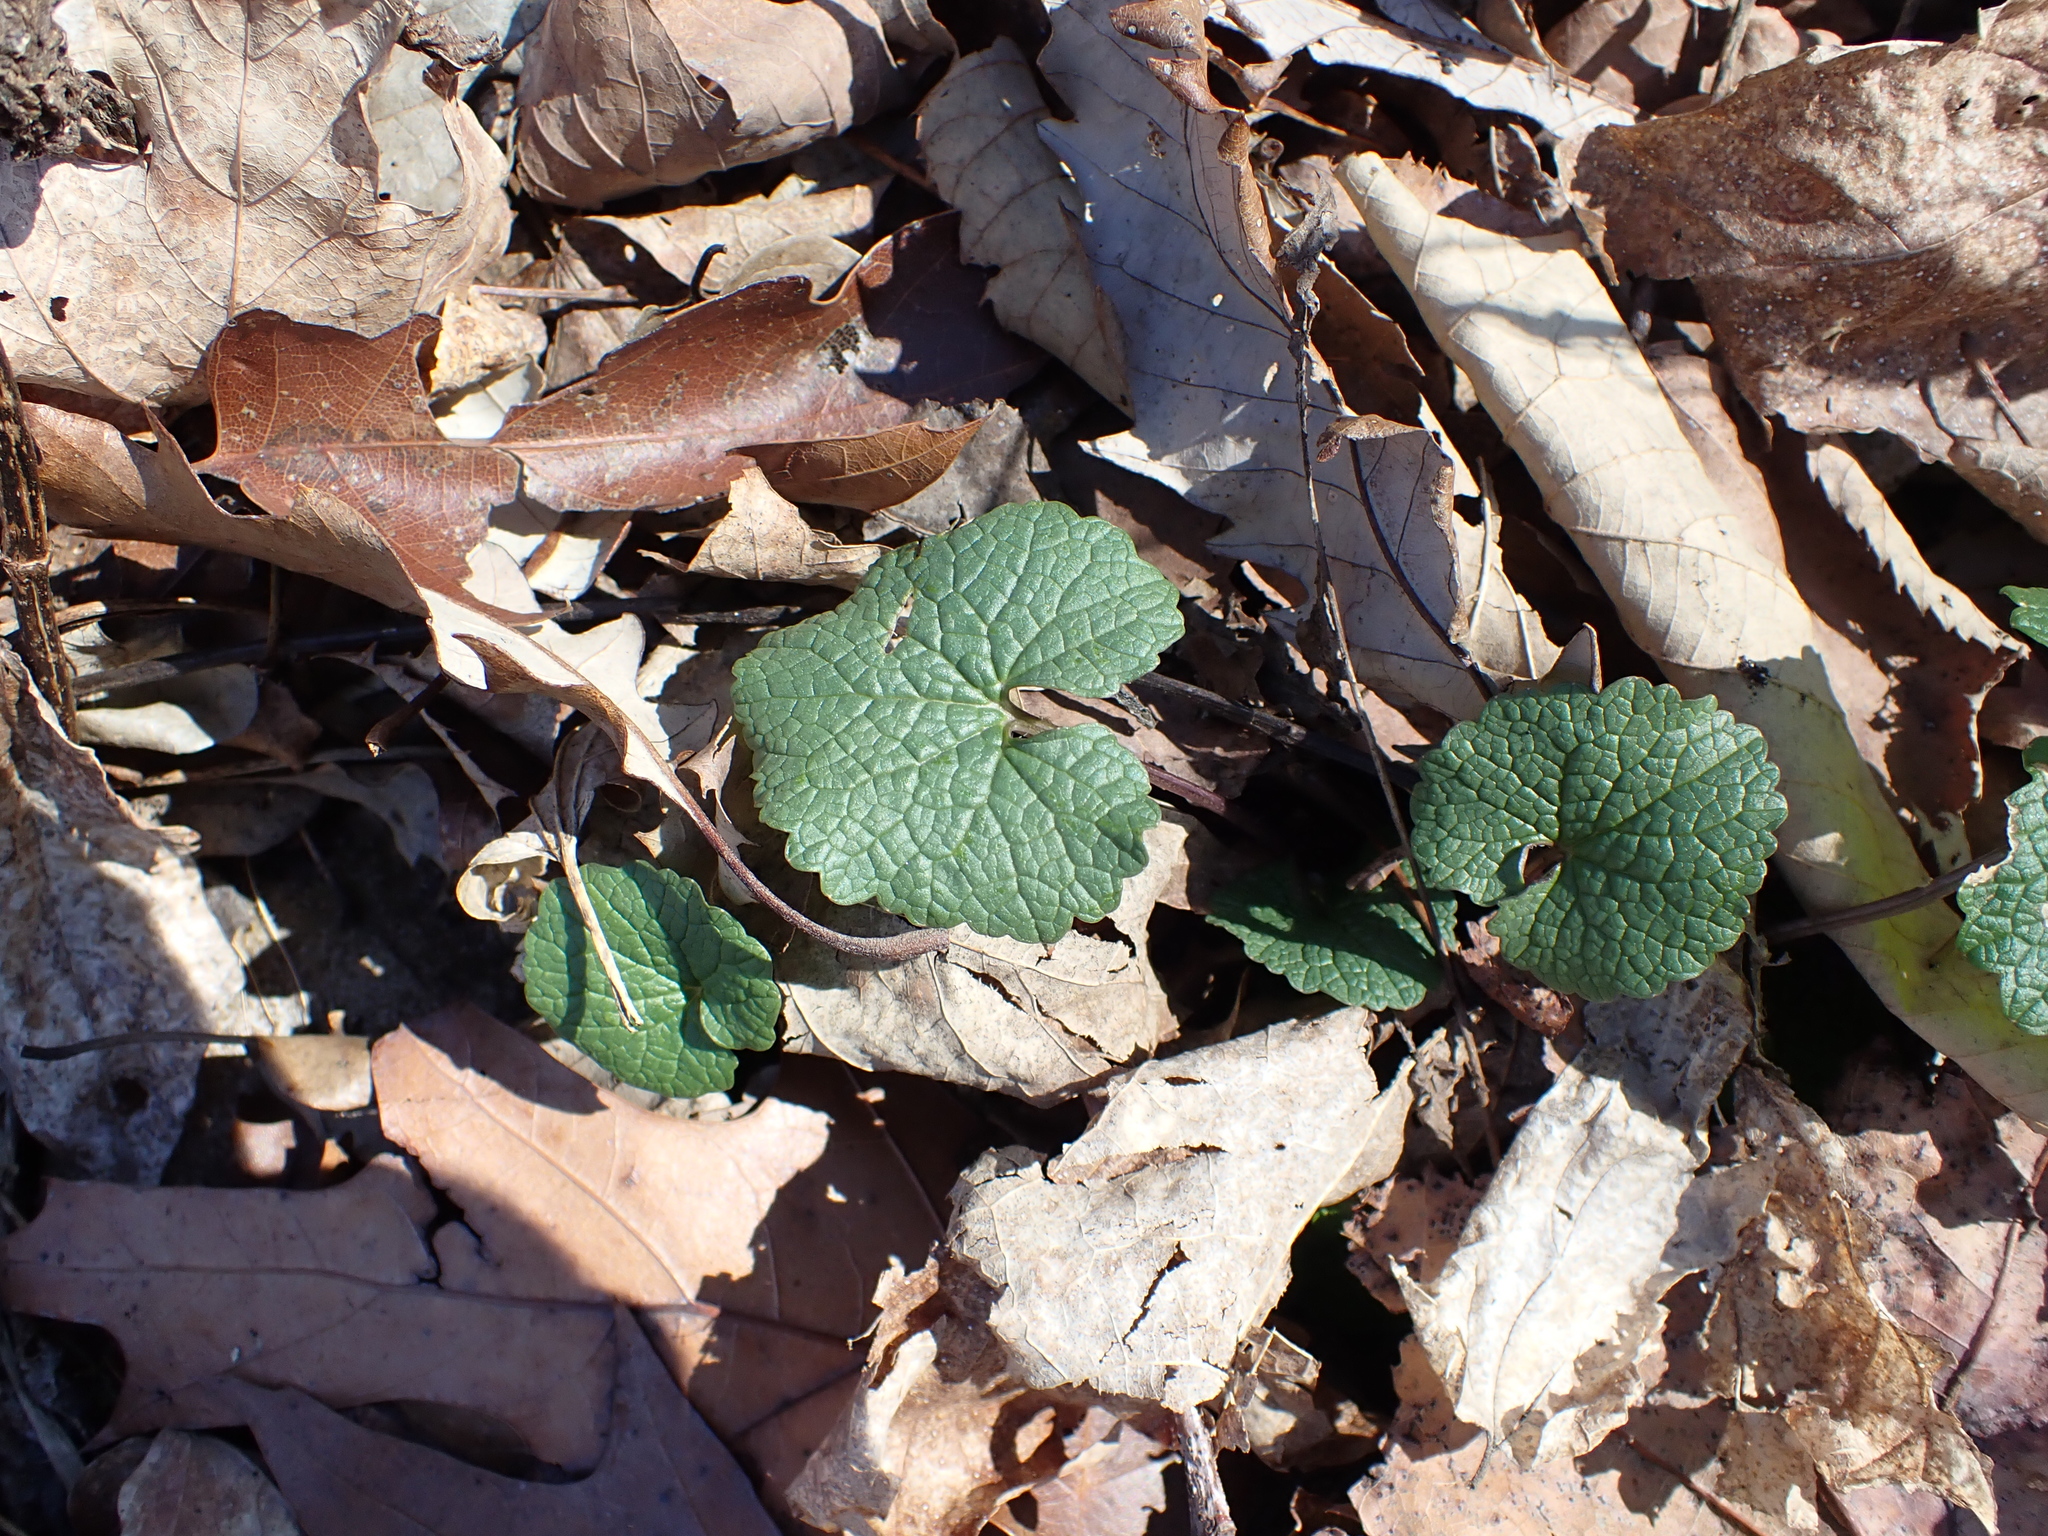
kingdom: Plantae
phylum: Tracheophyta
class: Magnoliopsida
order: Brassicales
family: Brassicaceae
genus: Alliaria
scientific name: Alliaria petiolata
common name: Garlic mustard
